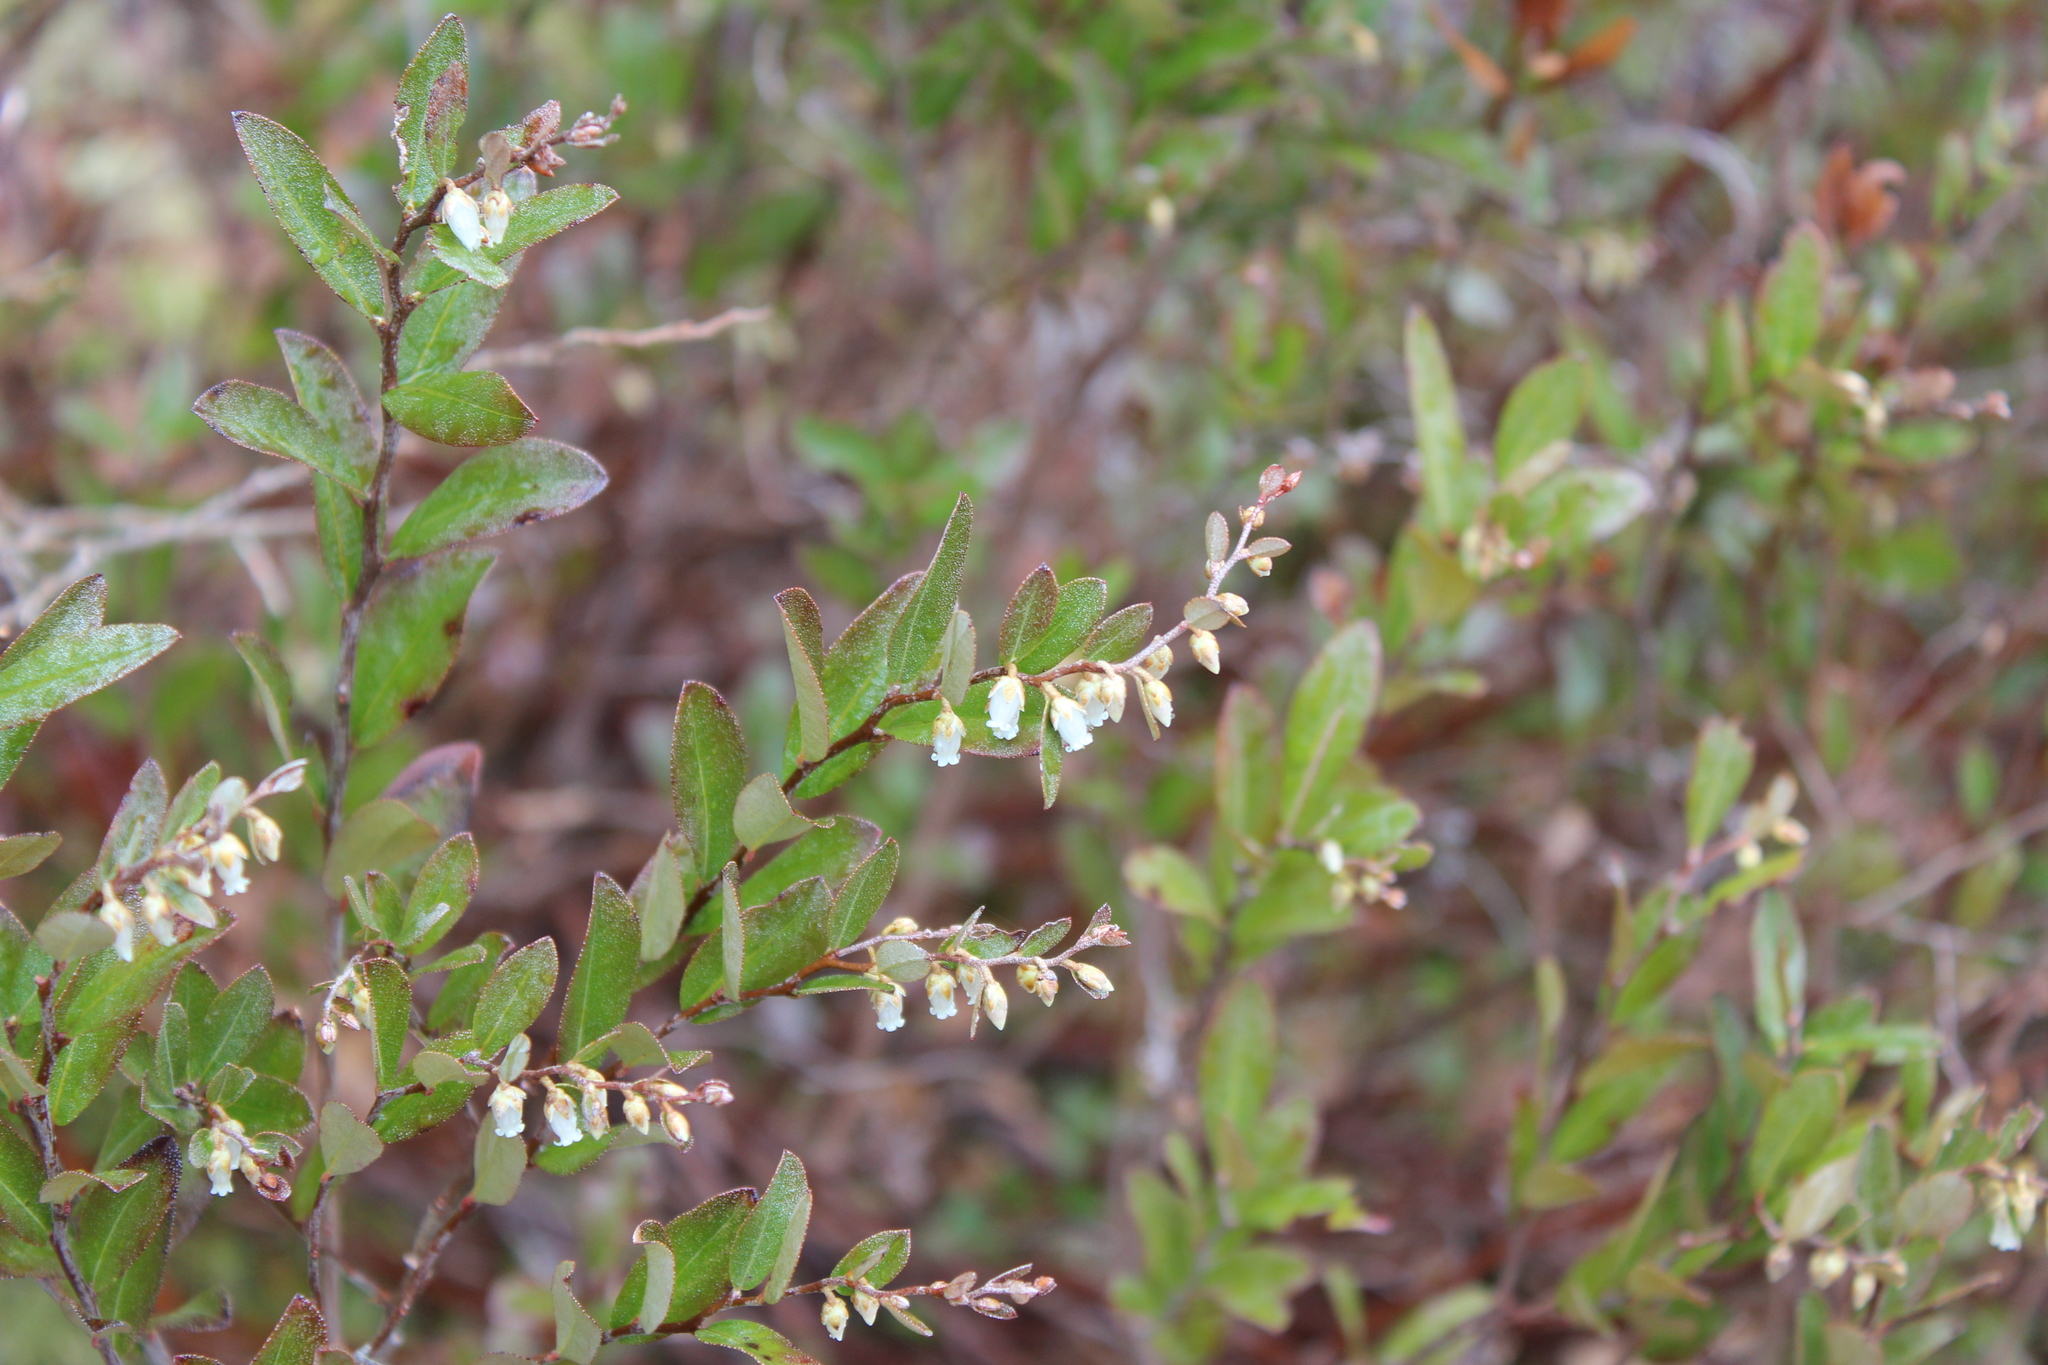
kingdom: Plantae
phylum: Tracheophyta
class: Magnoliopsida
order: Ericales
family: Ericaceae
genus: Chamaedaphne
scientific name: Chamaedaphne calyculata
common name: Leatherleaf
